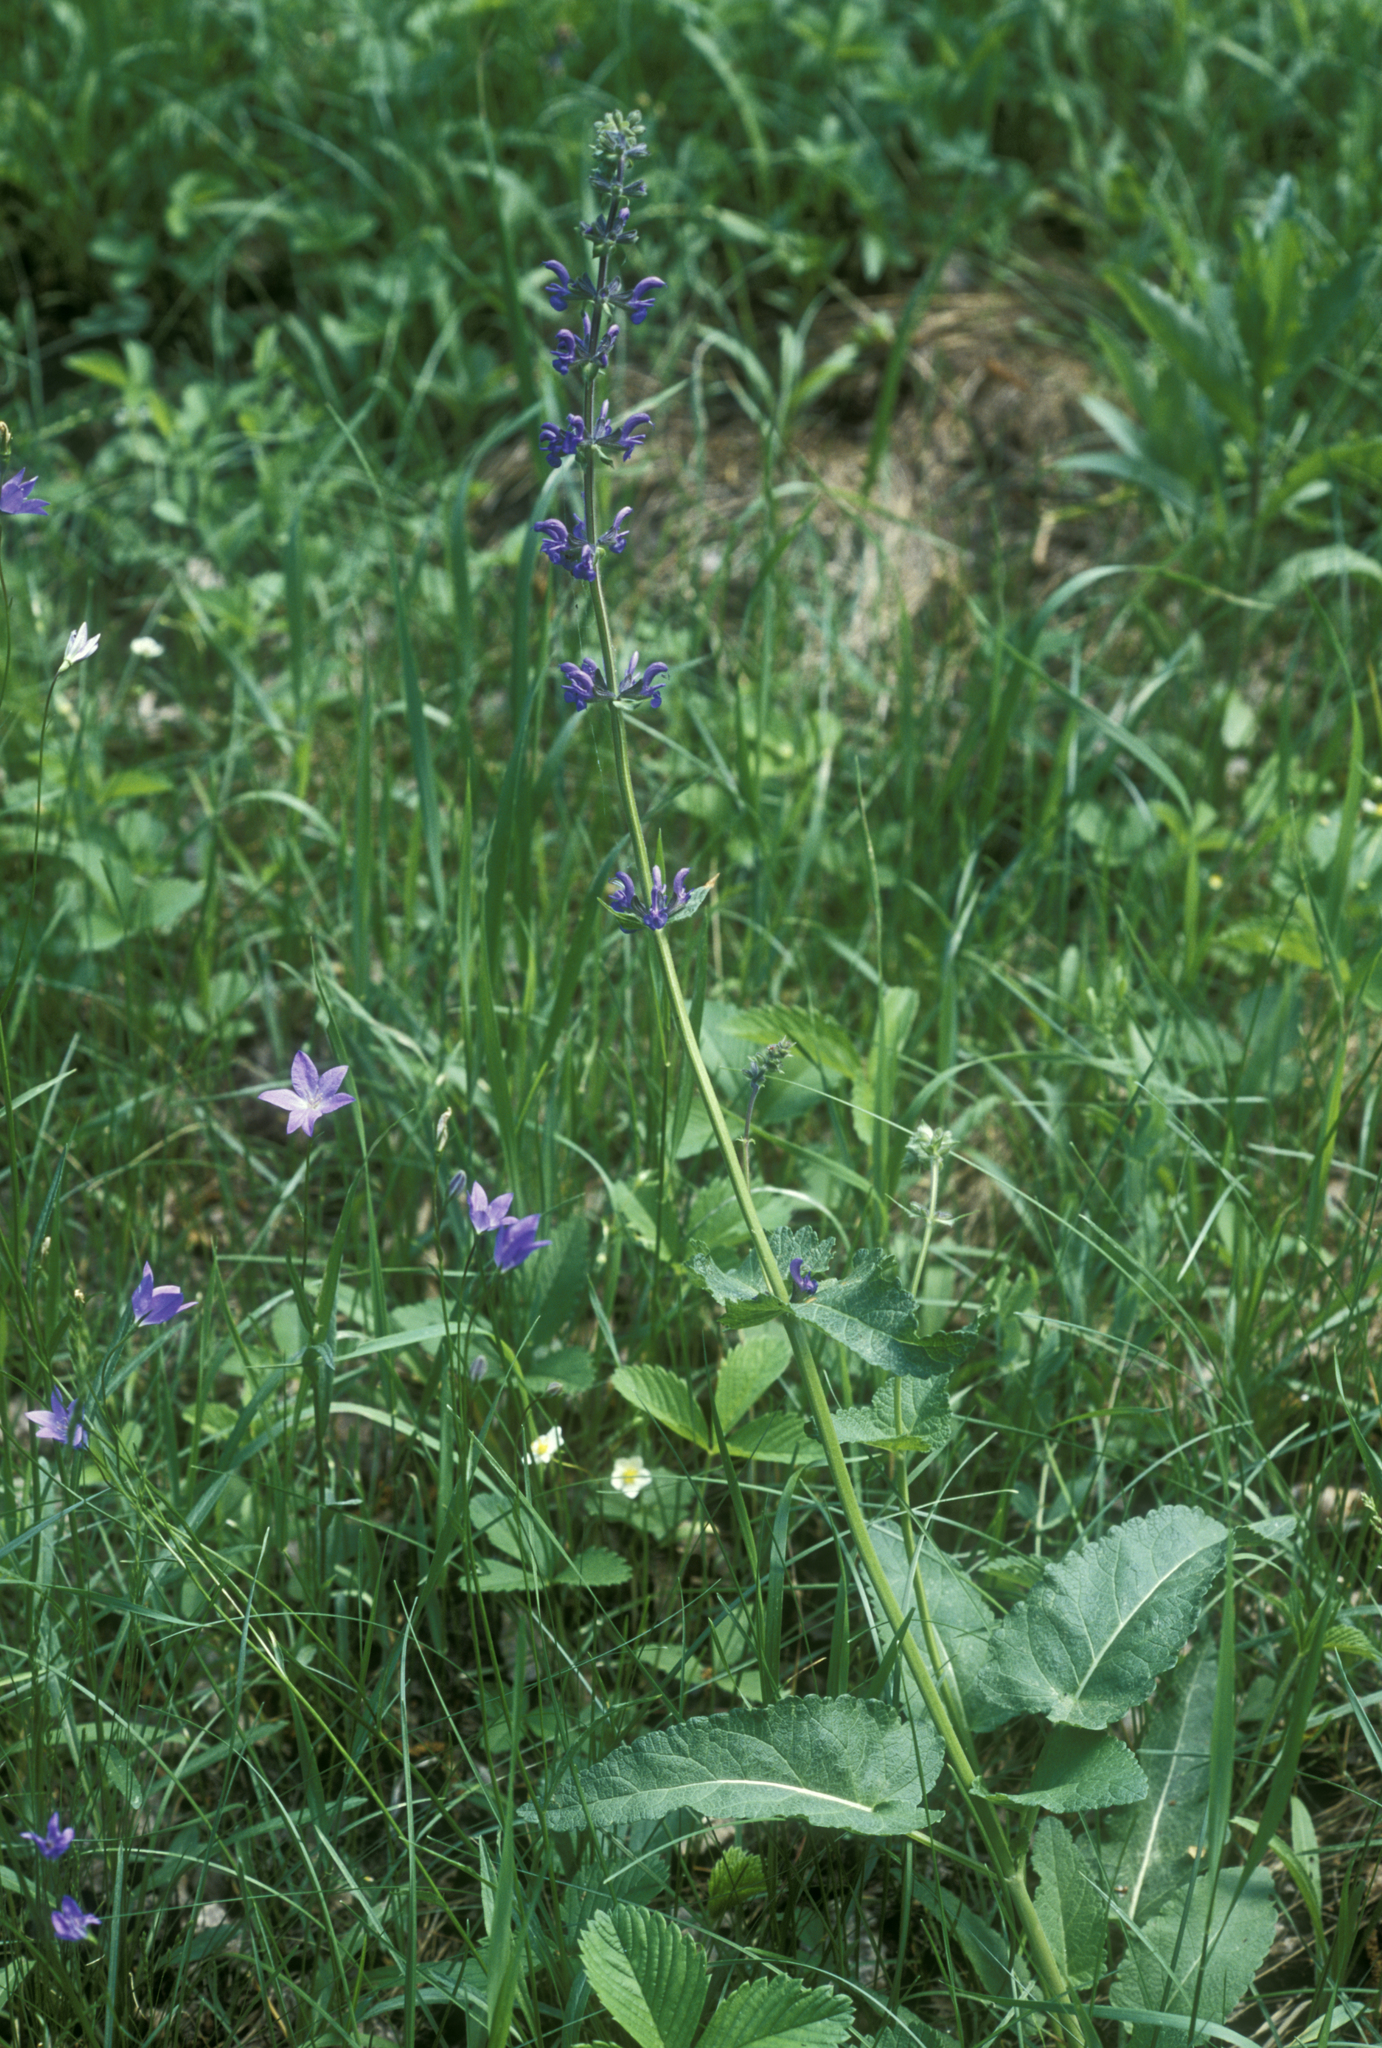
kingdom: Plantae
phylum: Tracheophyta
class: Magnoliopsida
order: Lamiales
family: Lamiaceae
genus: Salvia
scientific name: Salvia dumetorum
